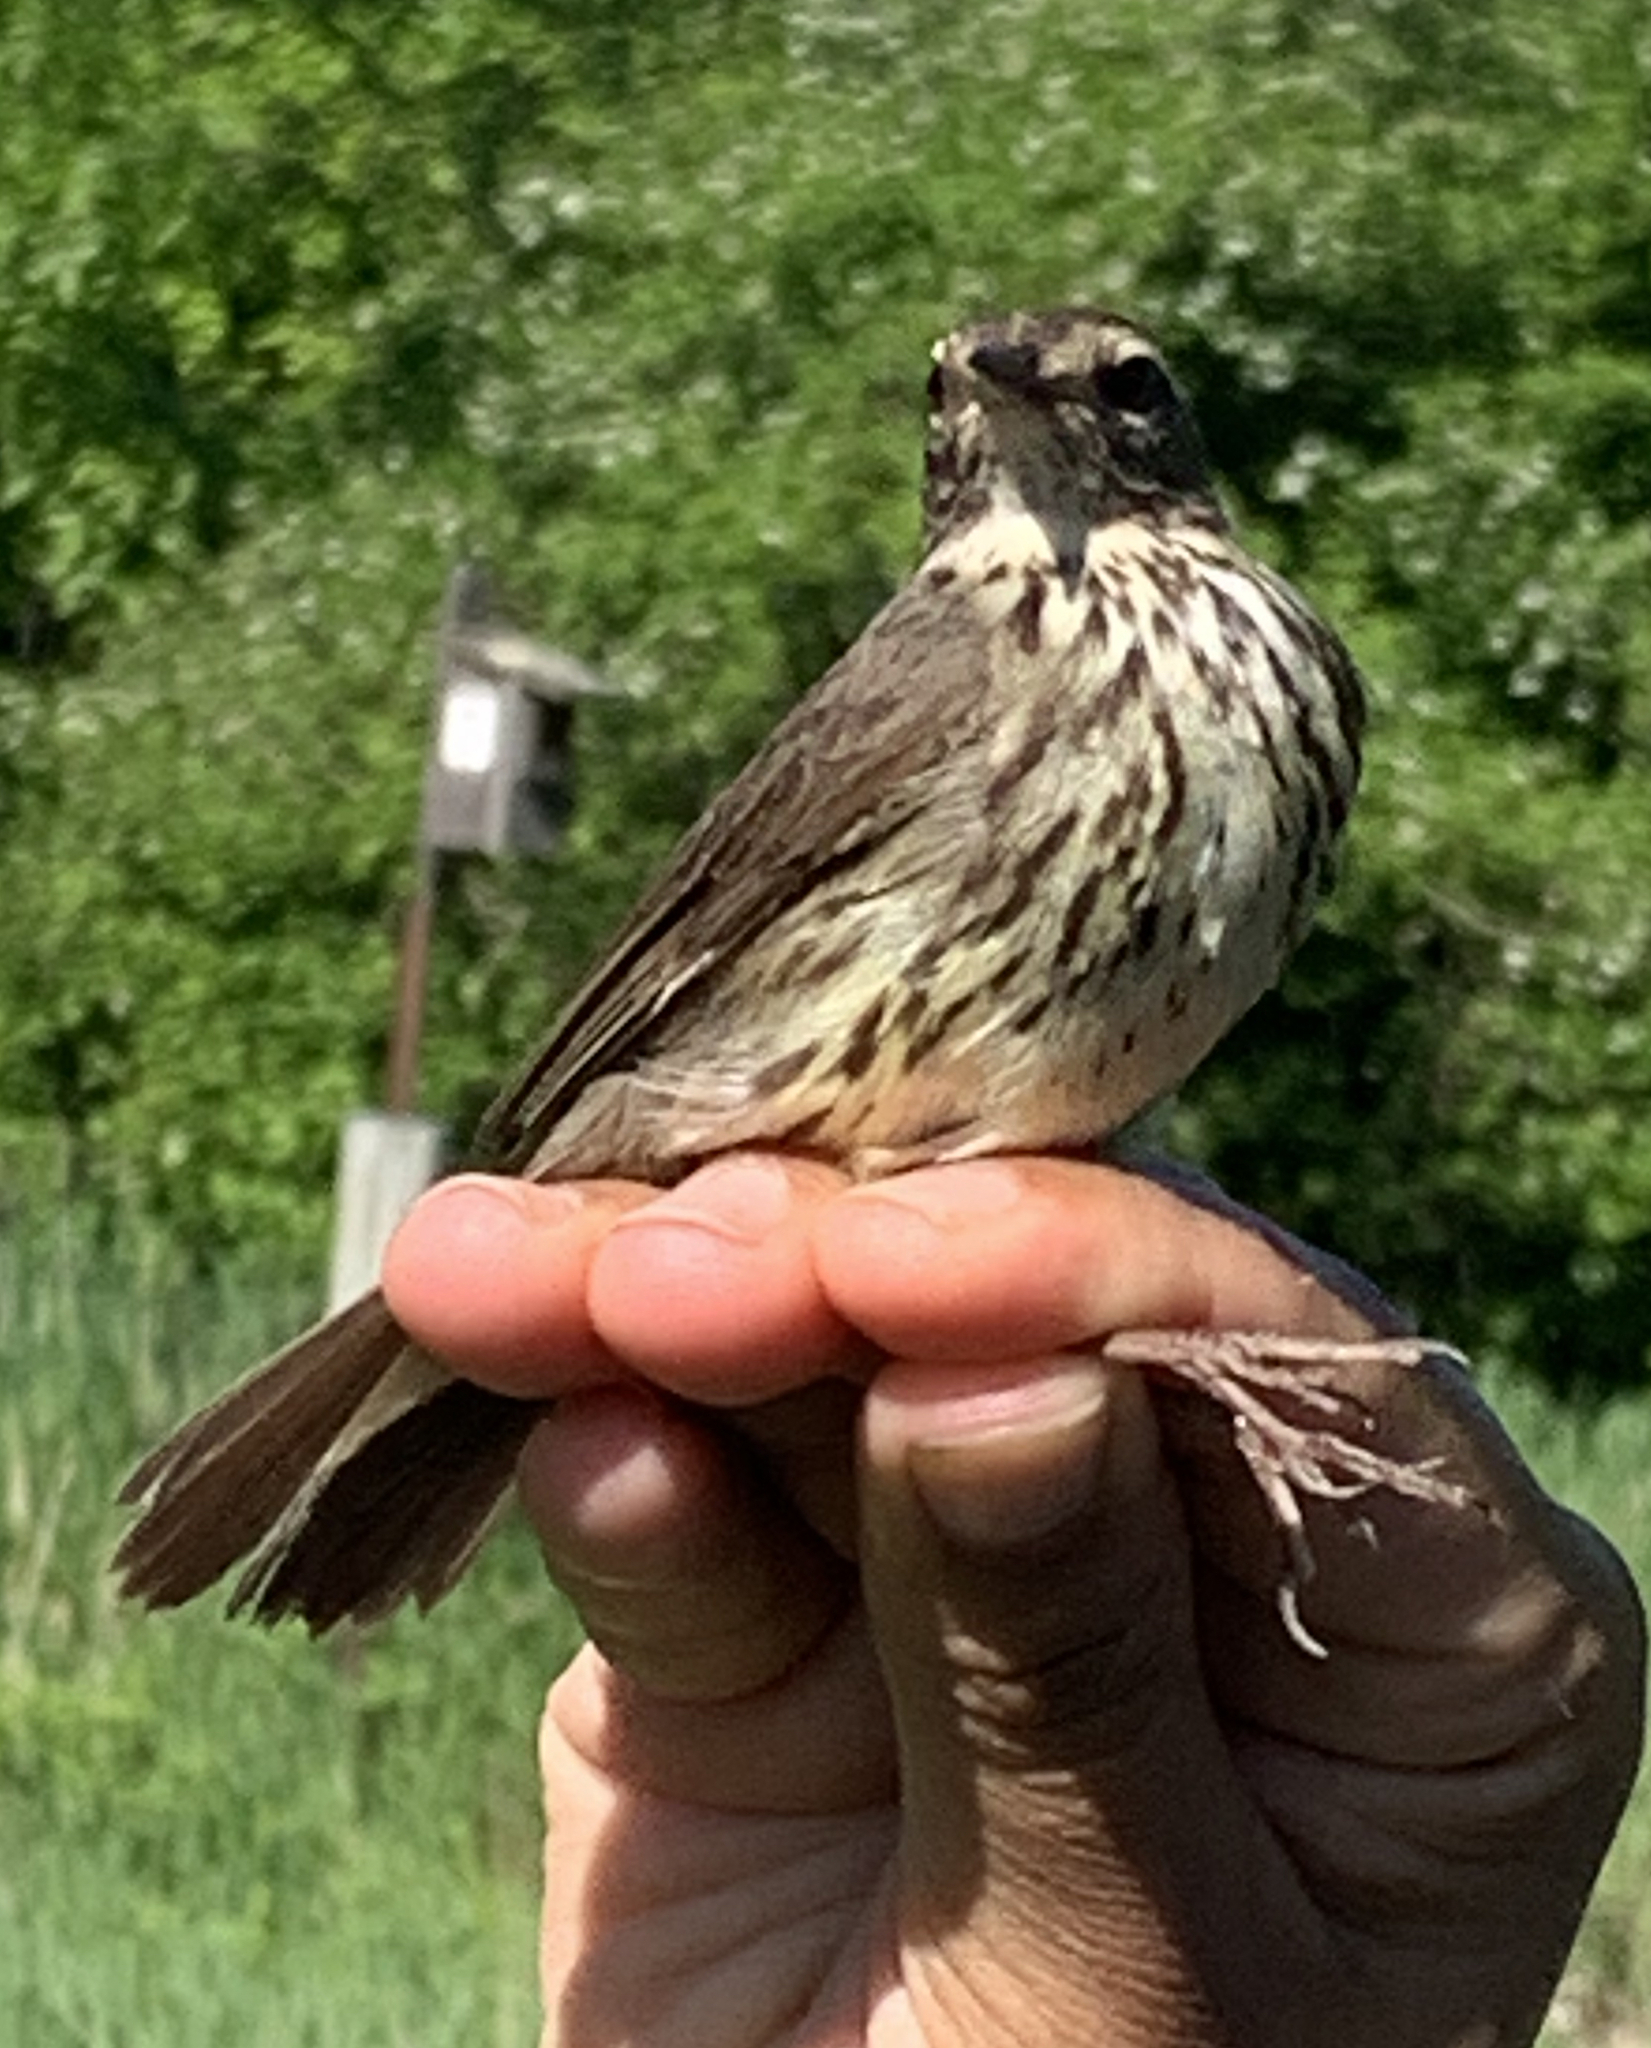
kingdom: Animalia
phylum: Chordata
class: Aves
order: Passeriformes
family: Parulidae
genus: Parkesia
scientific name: Parkesia noveboracensis
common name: Northern waterthrush
